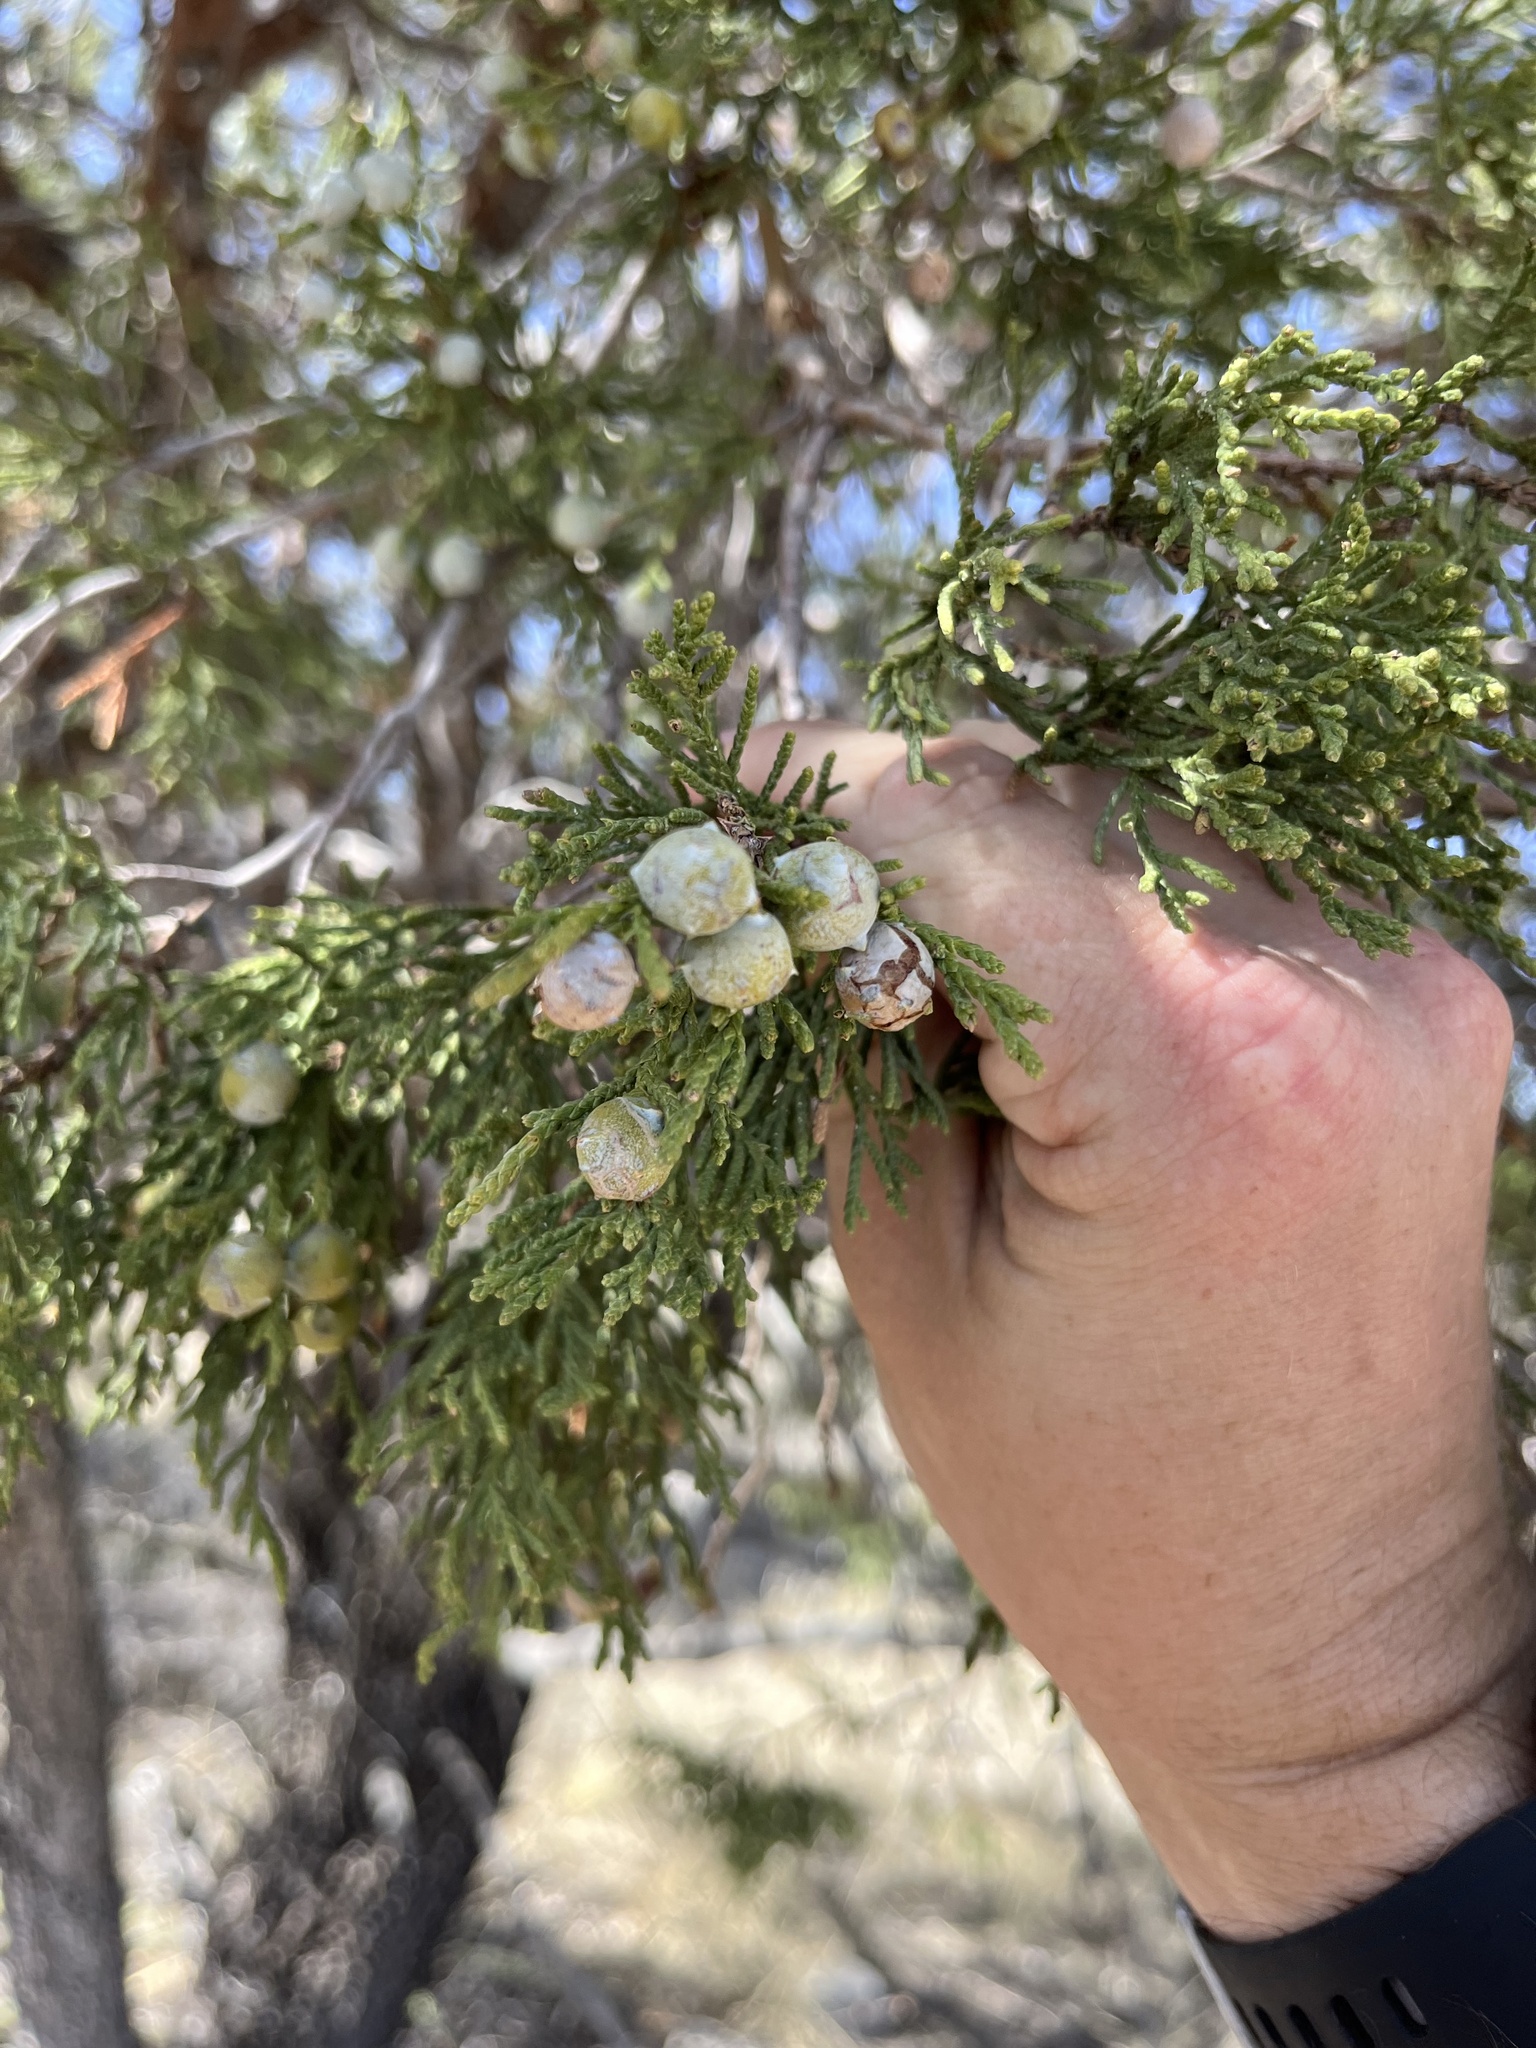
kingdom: Plantae
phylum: Tracheophyta
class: Pinopsida
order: Pinales
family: Cupressaceae
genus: Juniperus
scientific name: Juniperus deppeana
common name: Alligator juniper
